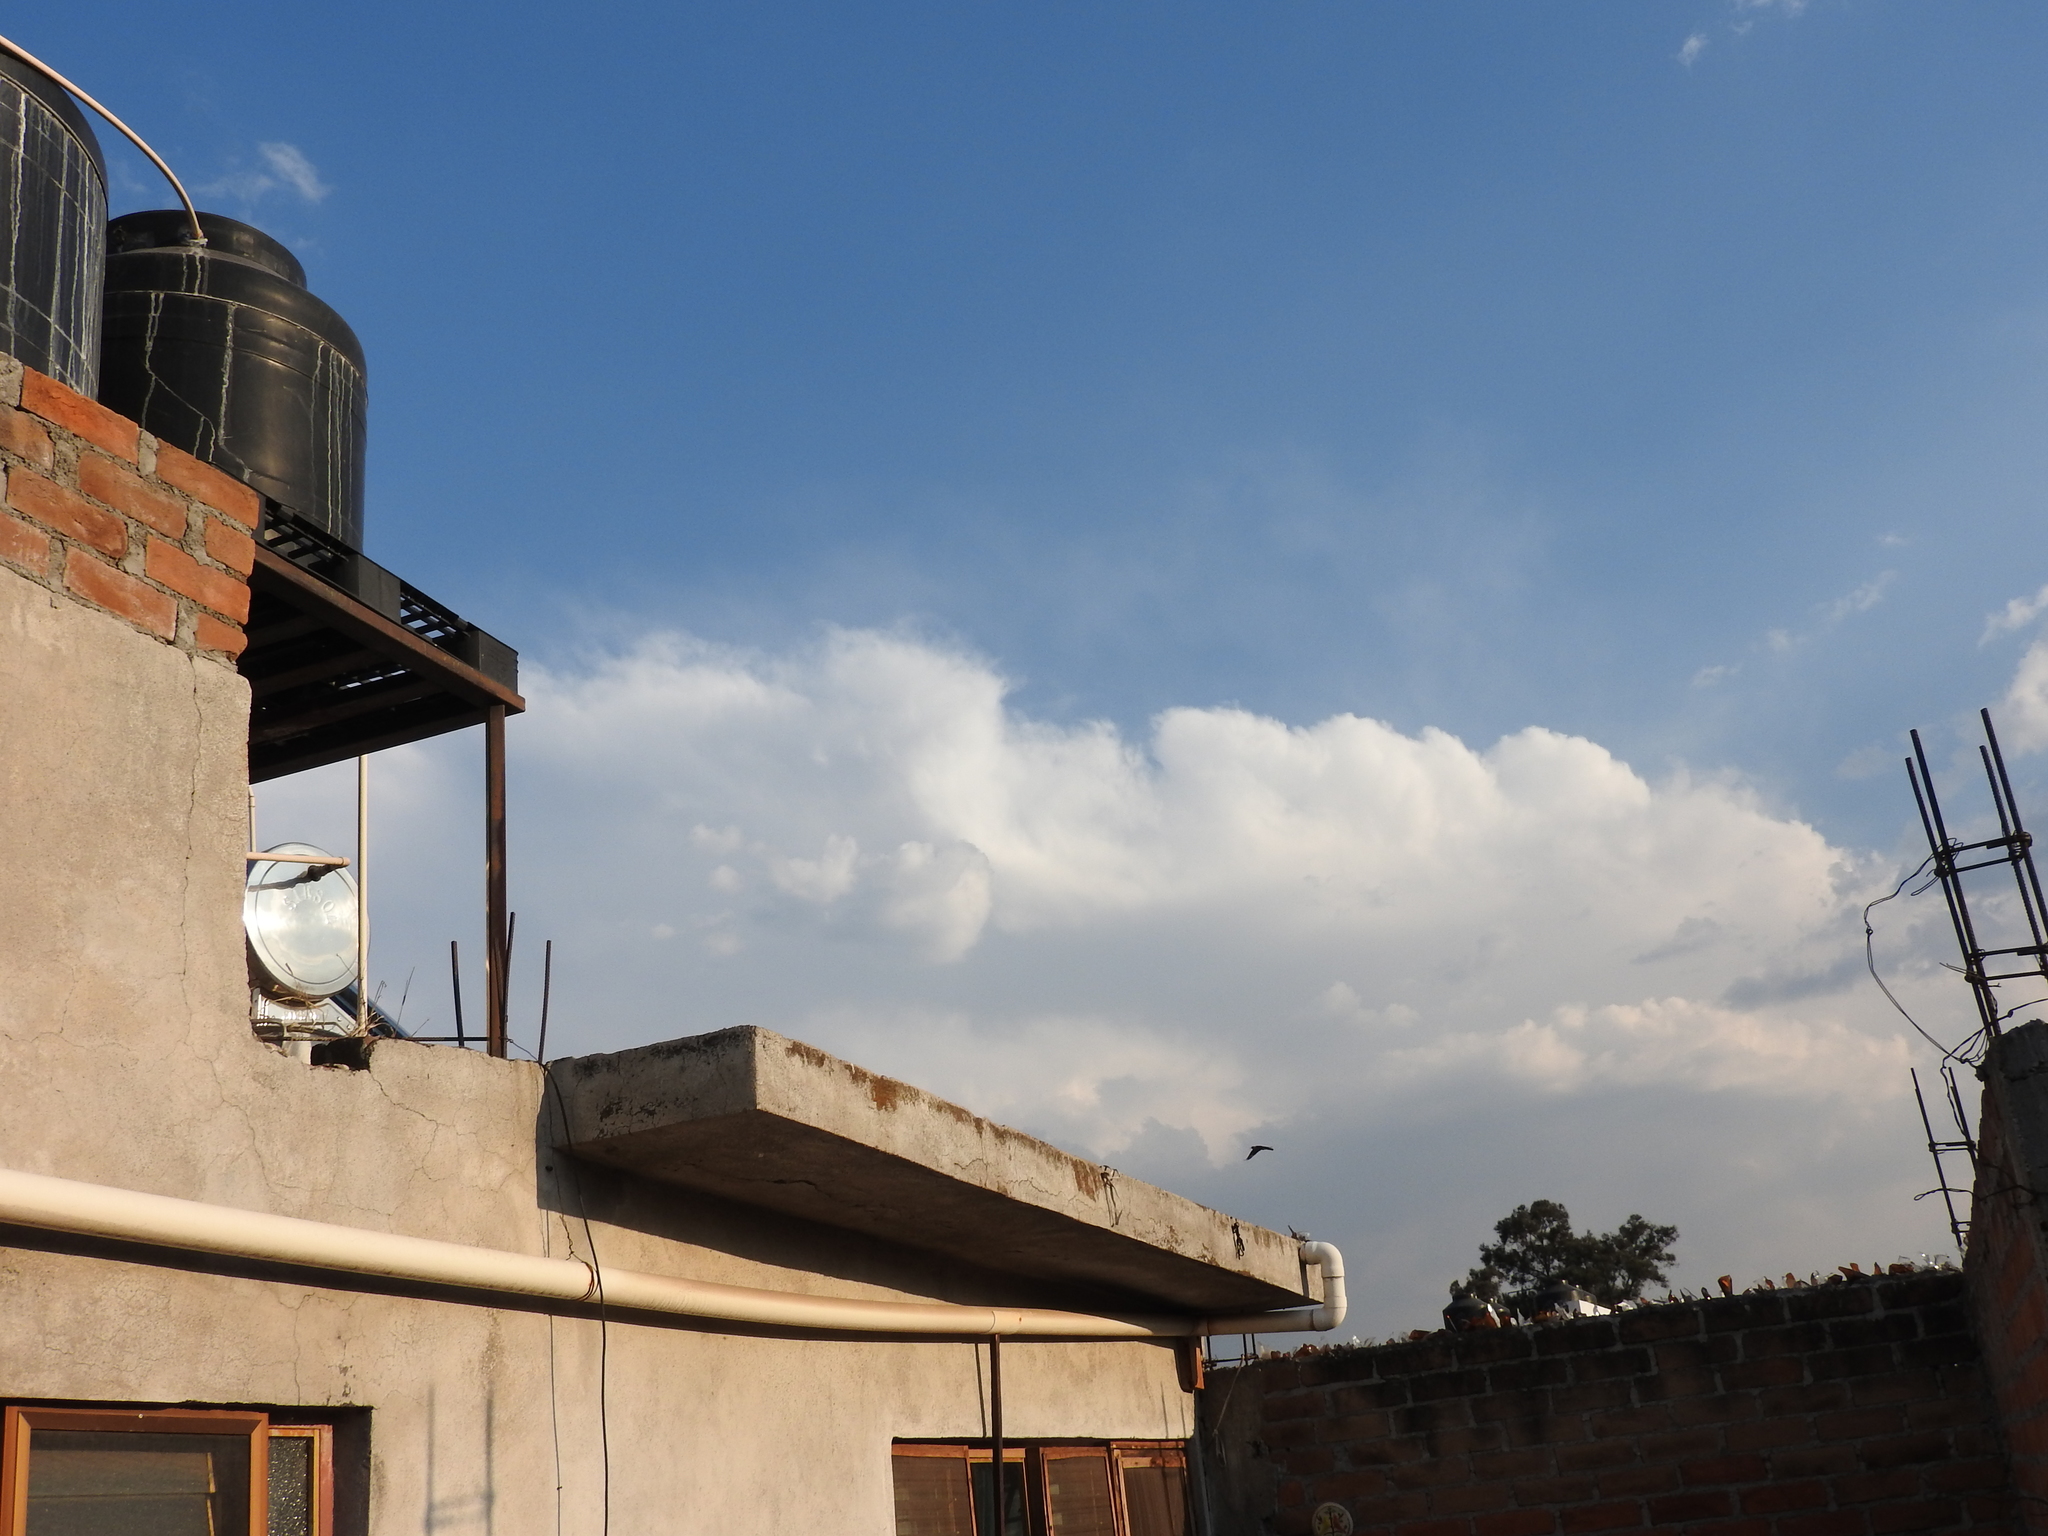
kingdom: Animalia
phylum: Chordata
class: Aves
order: Passeriformes
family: Icteridae
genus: Quiscalus
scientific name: Quiscalus mexicanus
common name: Great-tailed grackle
